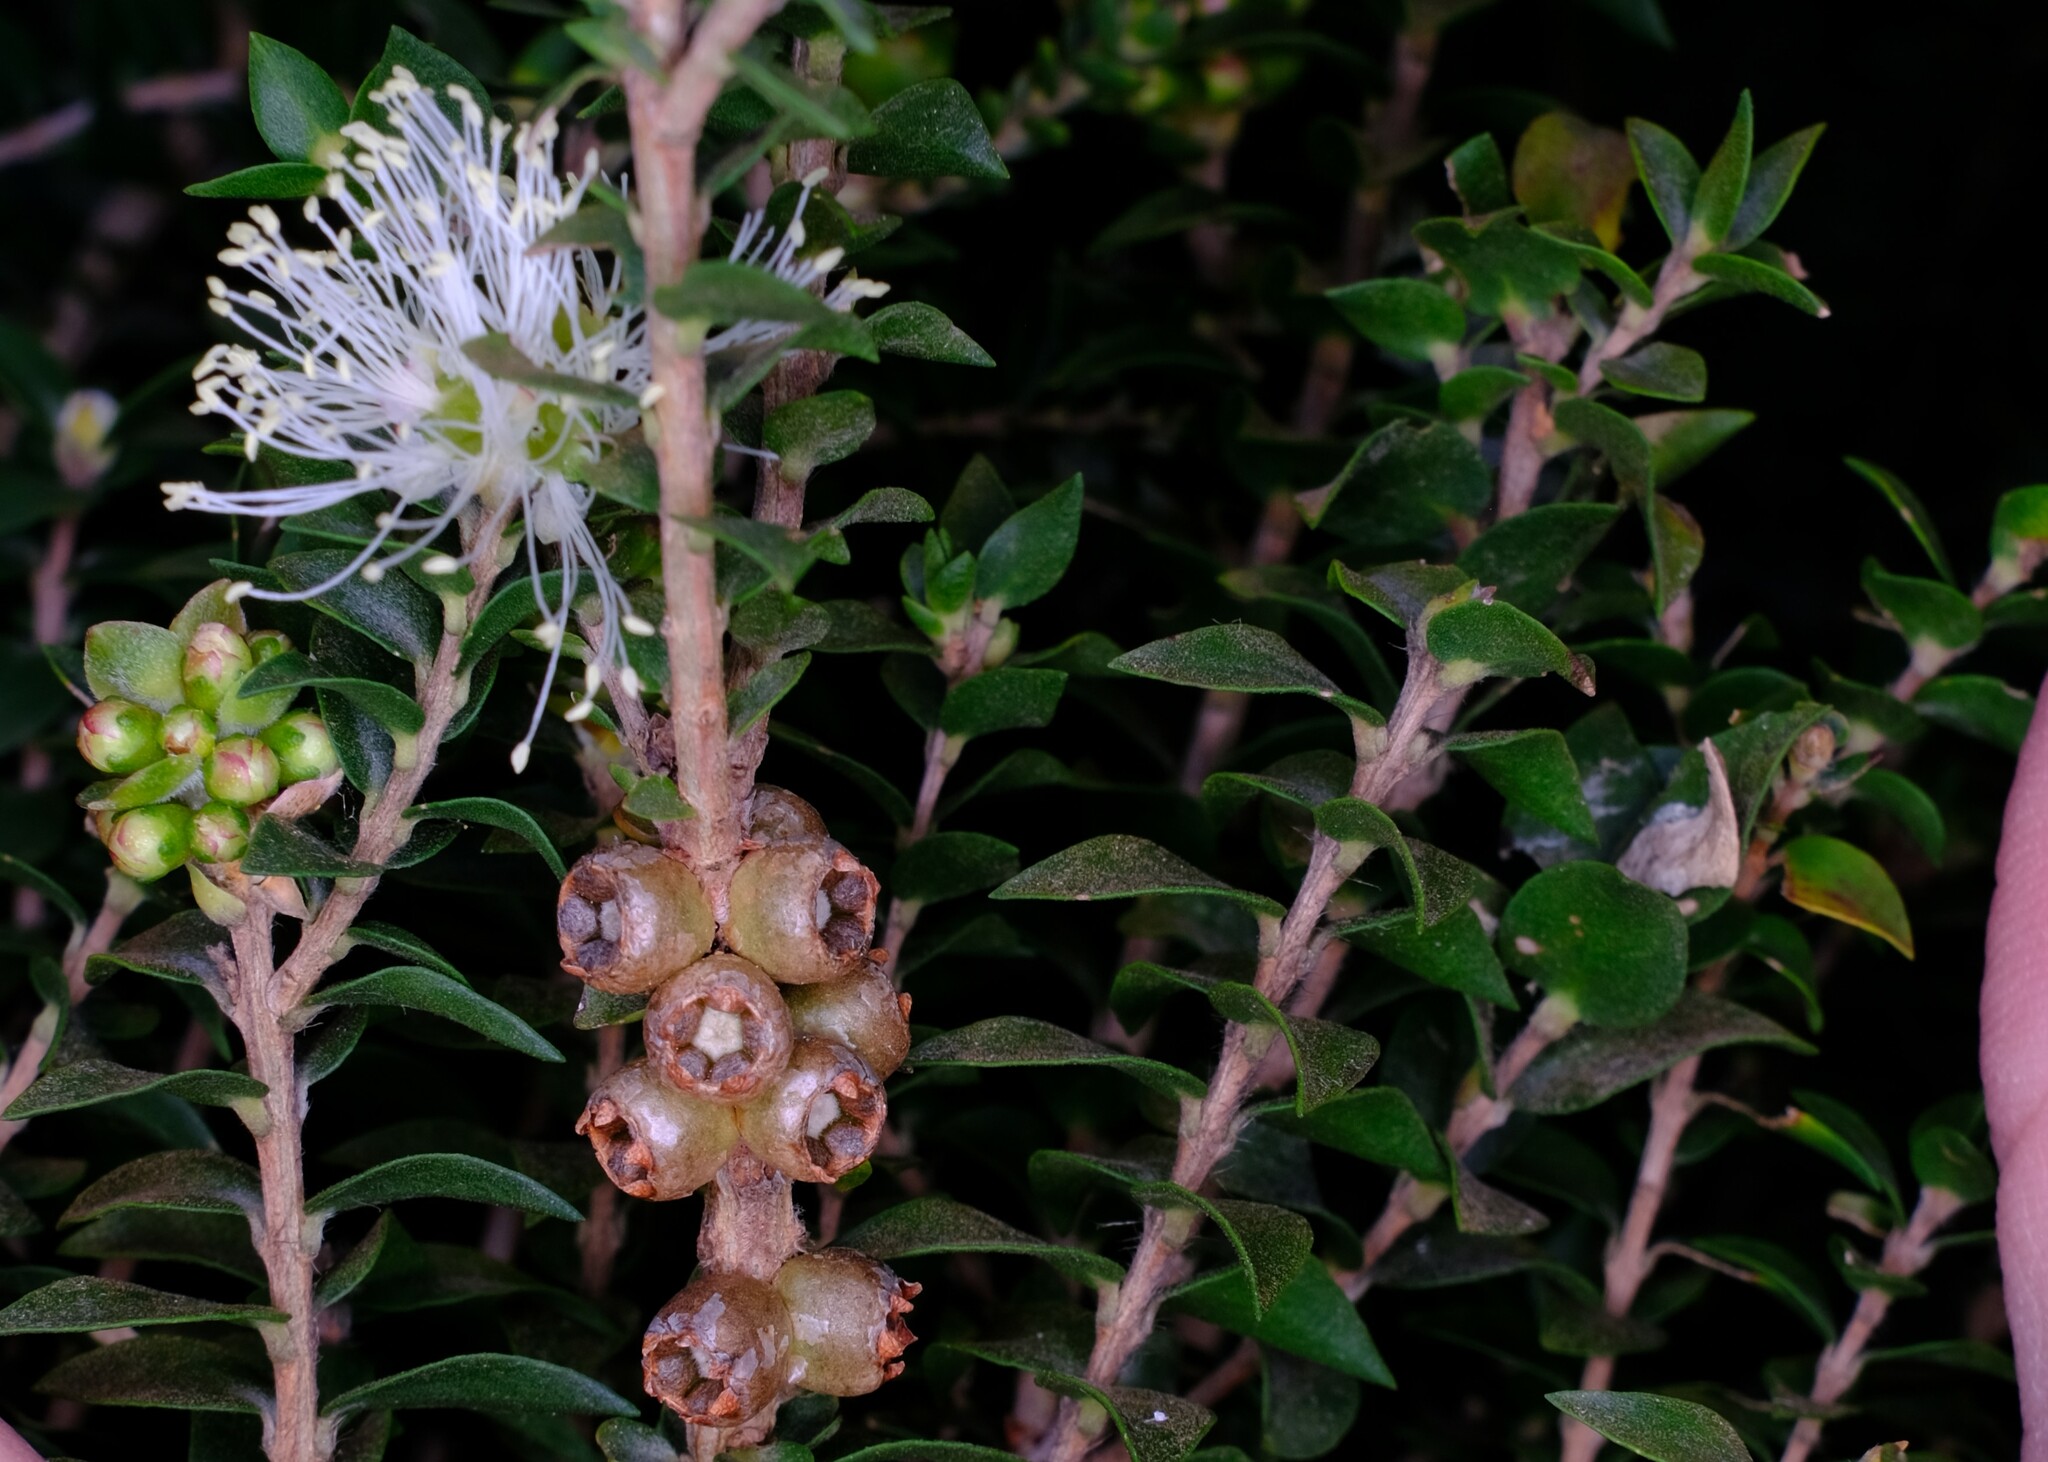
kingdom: Plantae
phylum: Tracheophyta
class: Magnoliopsida
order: Myrtales
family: Myrtaceae
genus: Melaleuca
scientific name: Melaleuca squarrosa
